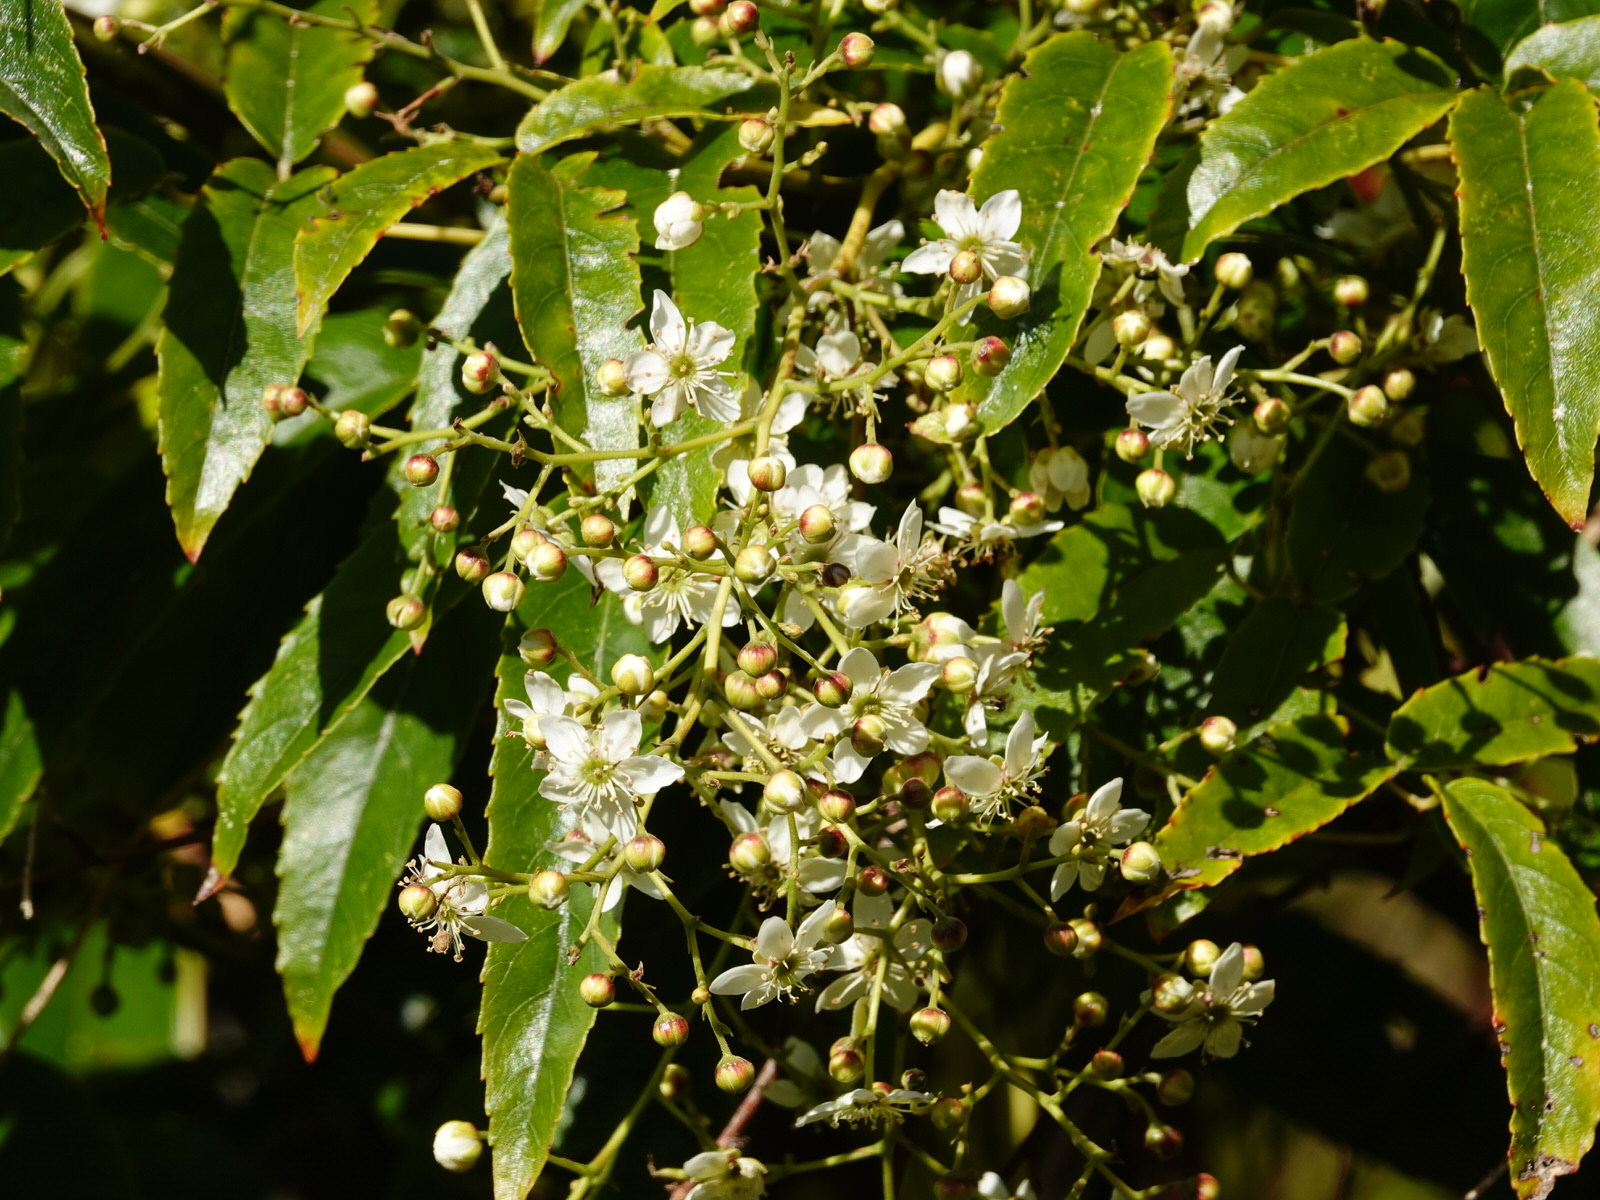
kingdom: Plantae
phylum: Tracheophyta
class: Magnoliopsida
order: Rosales
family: Rosaceae
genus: Rubus
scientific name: Rubus cissoides
